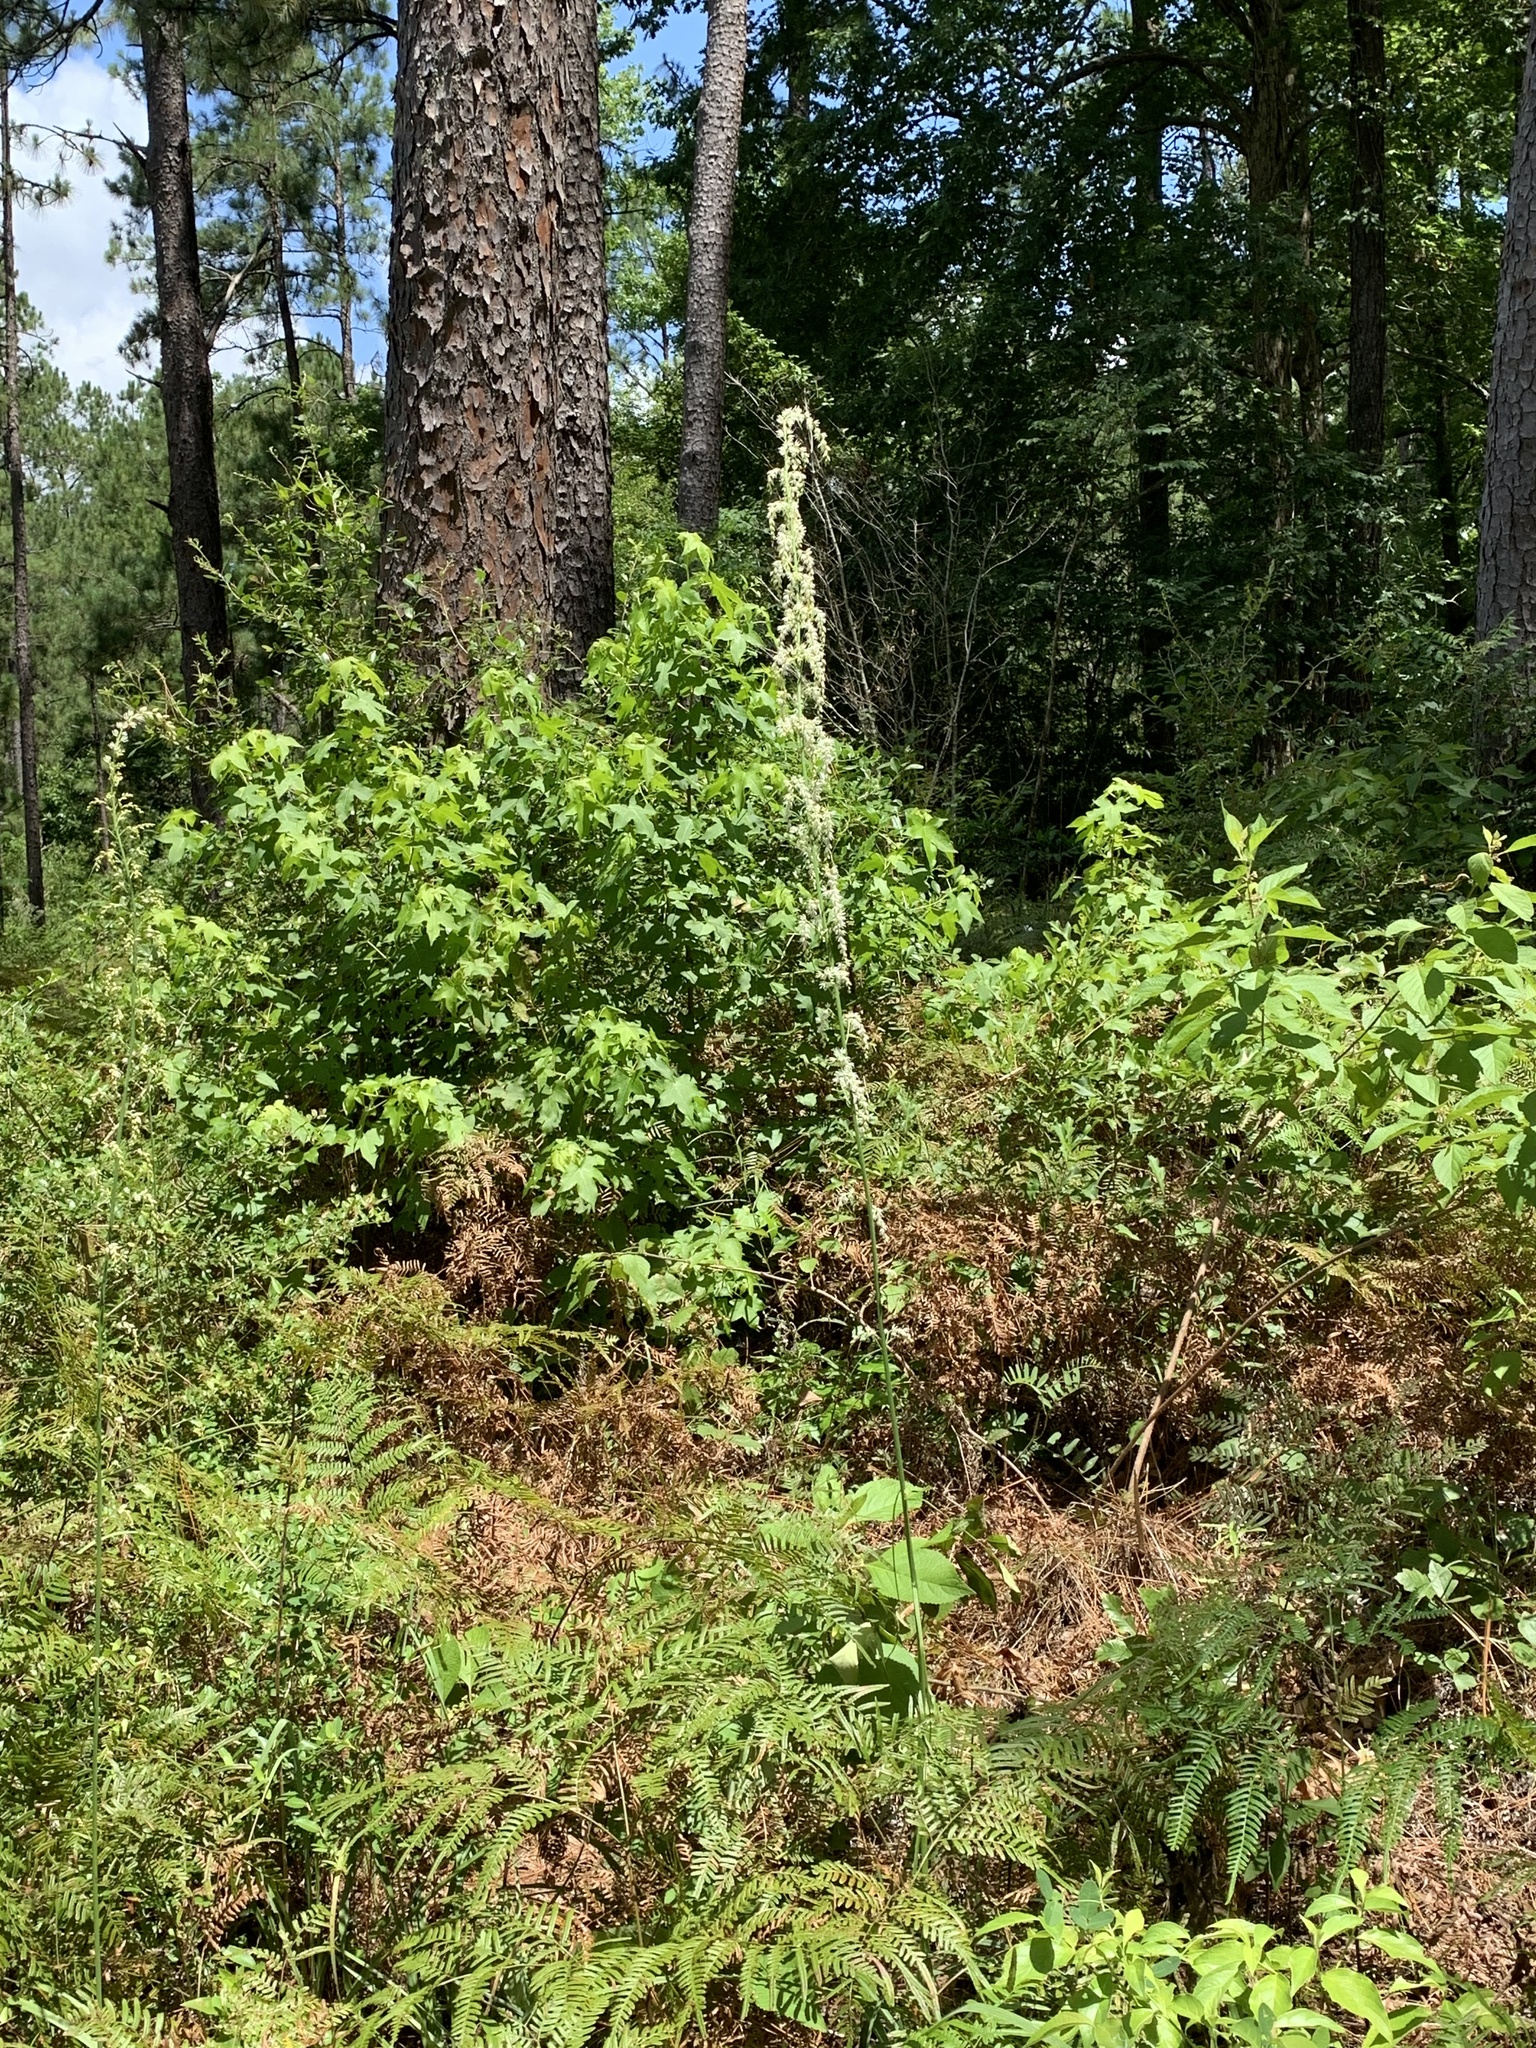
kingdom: Plantae
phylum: Tracheophyta
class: Liliopsida
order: Liliales
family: Melanthiaceae
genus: Stenanthium
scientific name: Stenanthium gramineum
